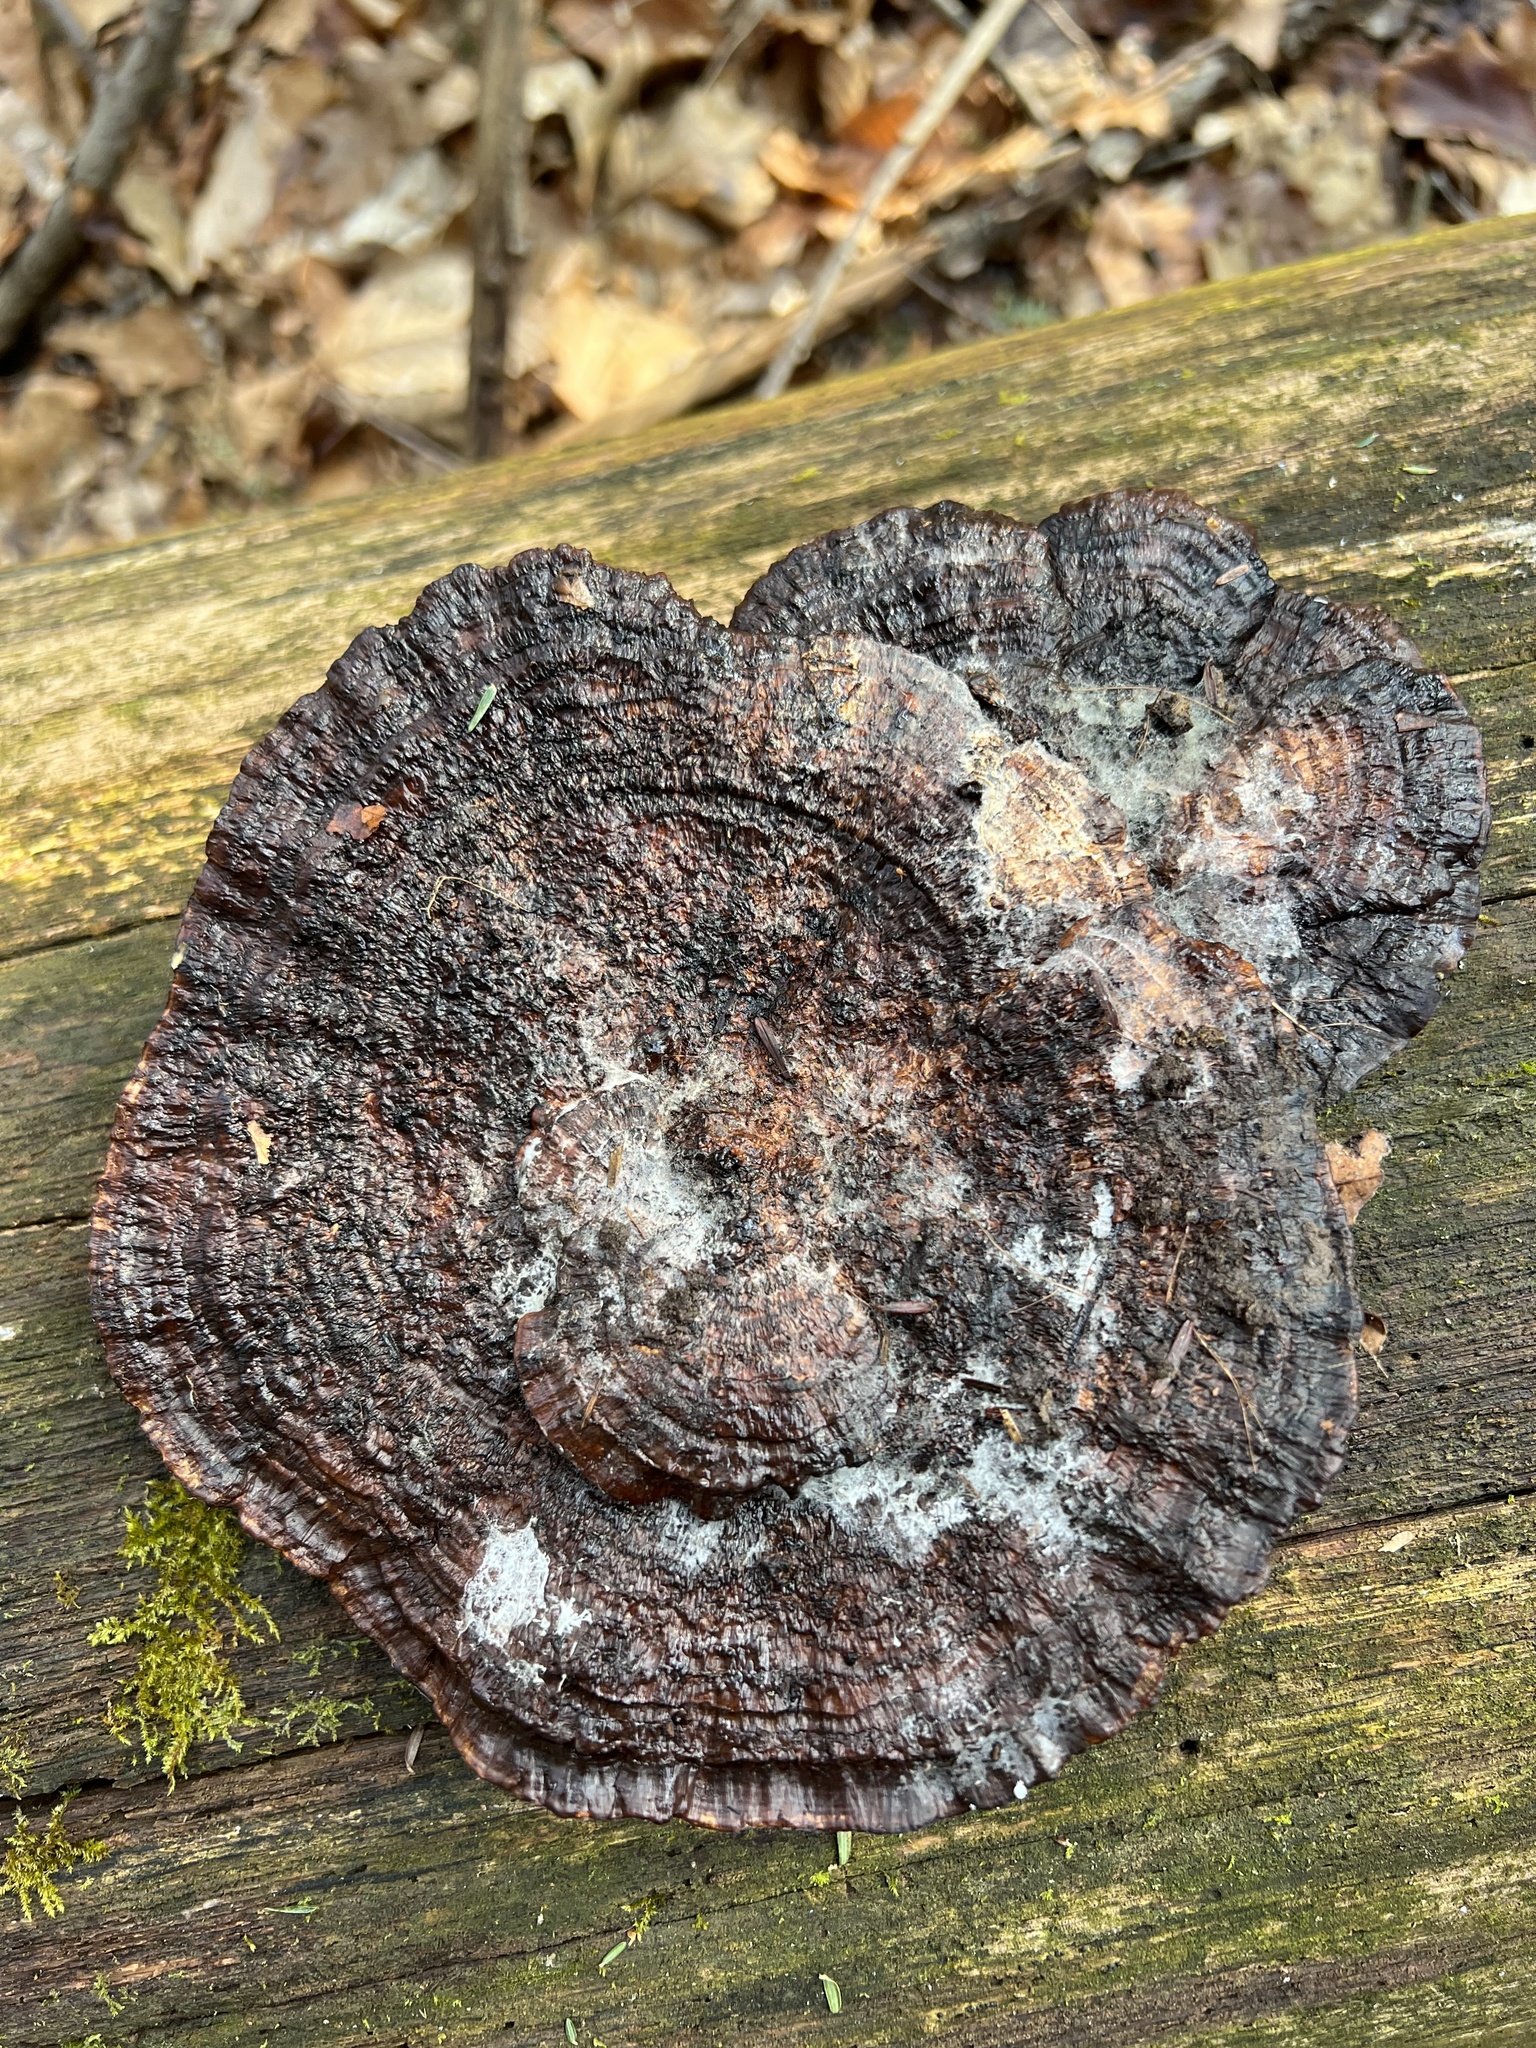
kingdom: Fungi
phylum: Basidiomycota
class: Agaricomycetes
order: Polyporales
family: Polyporaceae
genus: Daedaleopsis
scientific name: Daedaleopsis confragosa
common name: Blushing bracket
